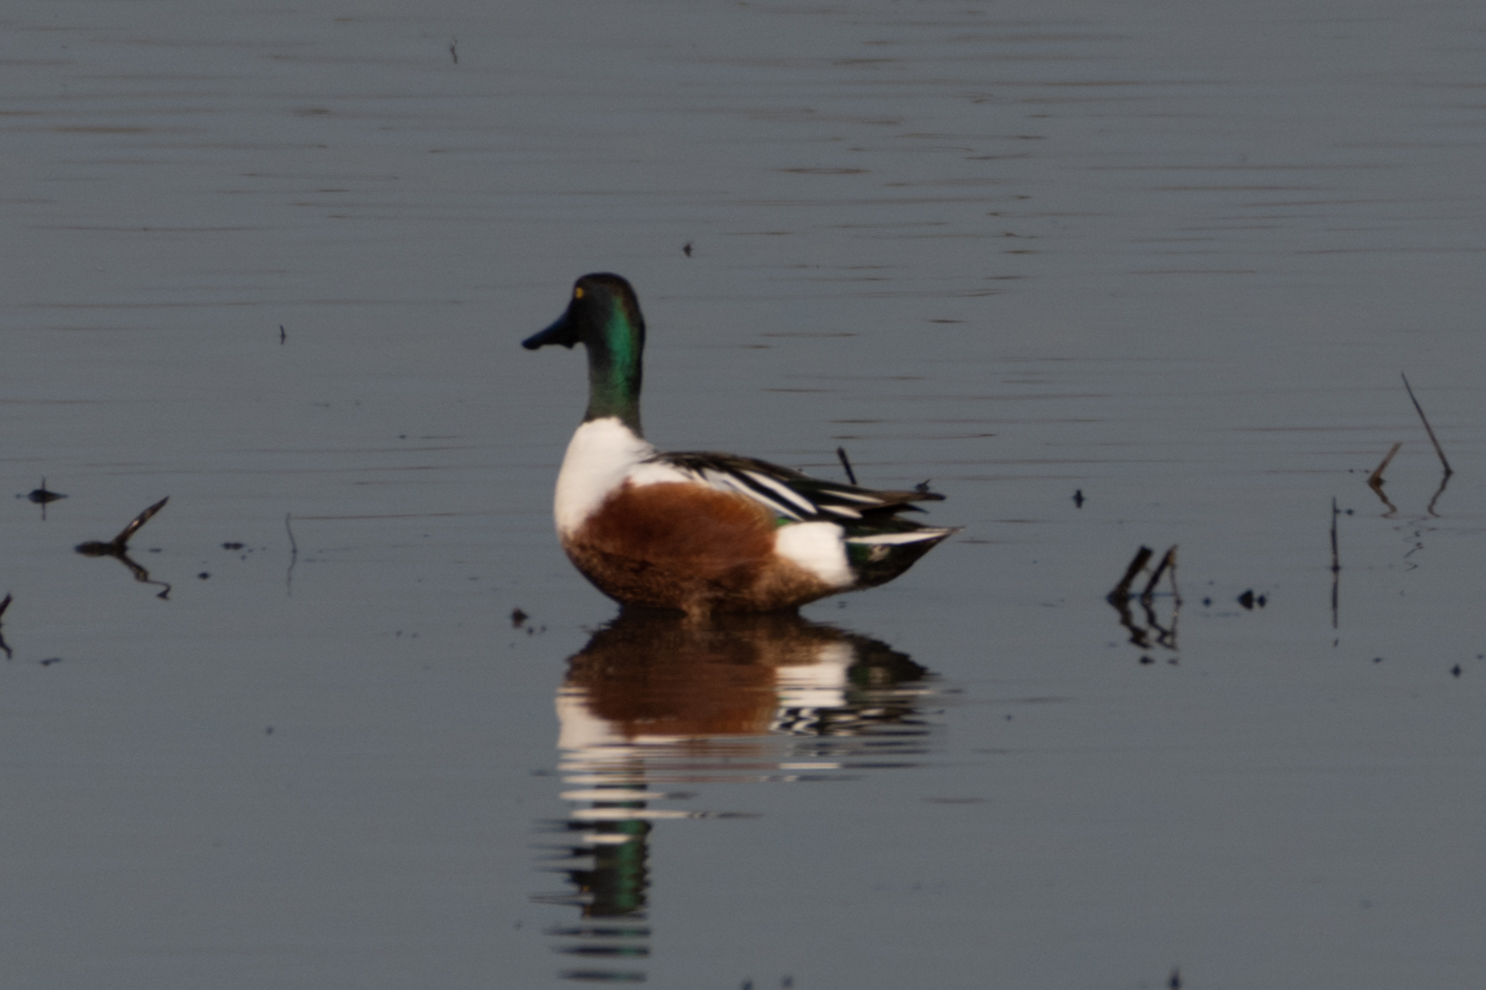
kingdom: Animalia
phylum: Chordata
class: Aves
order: Anseriformes
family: Anatidae
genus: Spatula
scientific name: Spatula clypeata
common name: Northern shoveler
